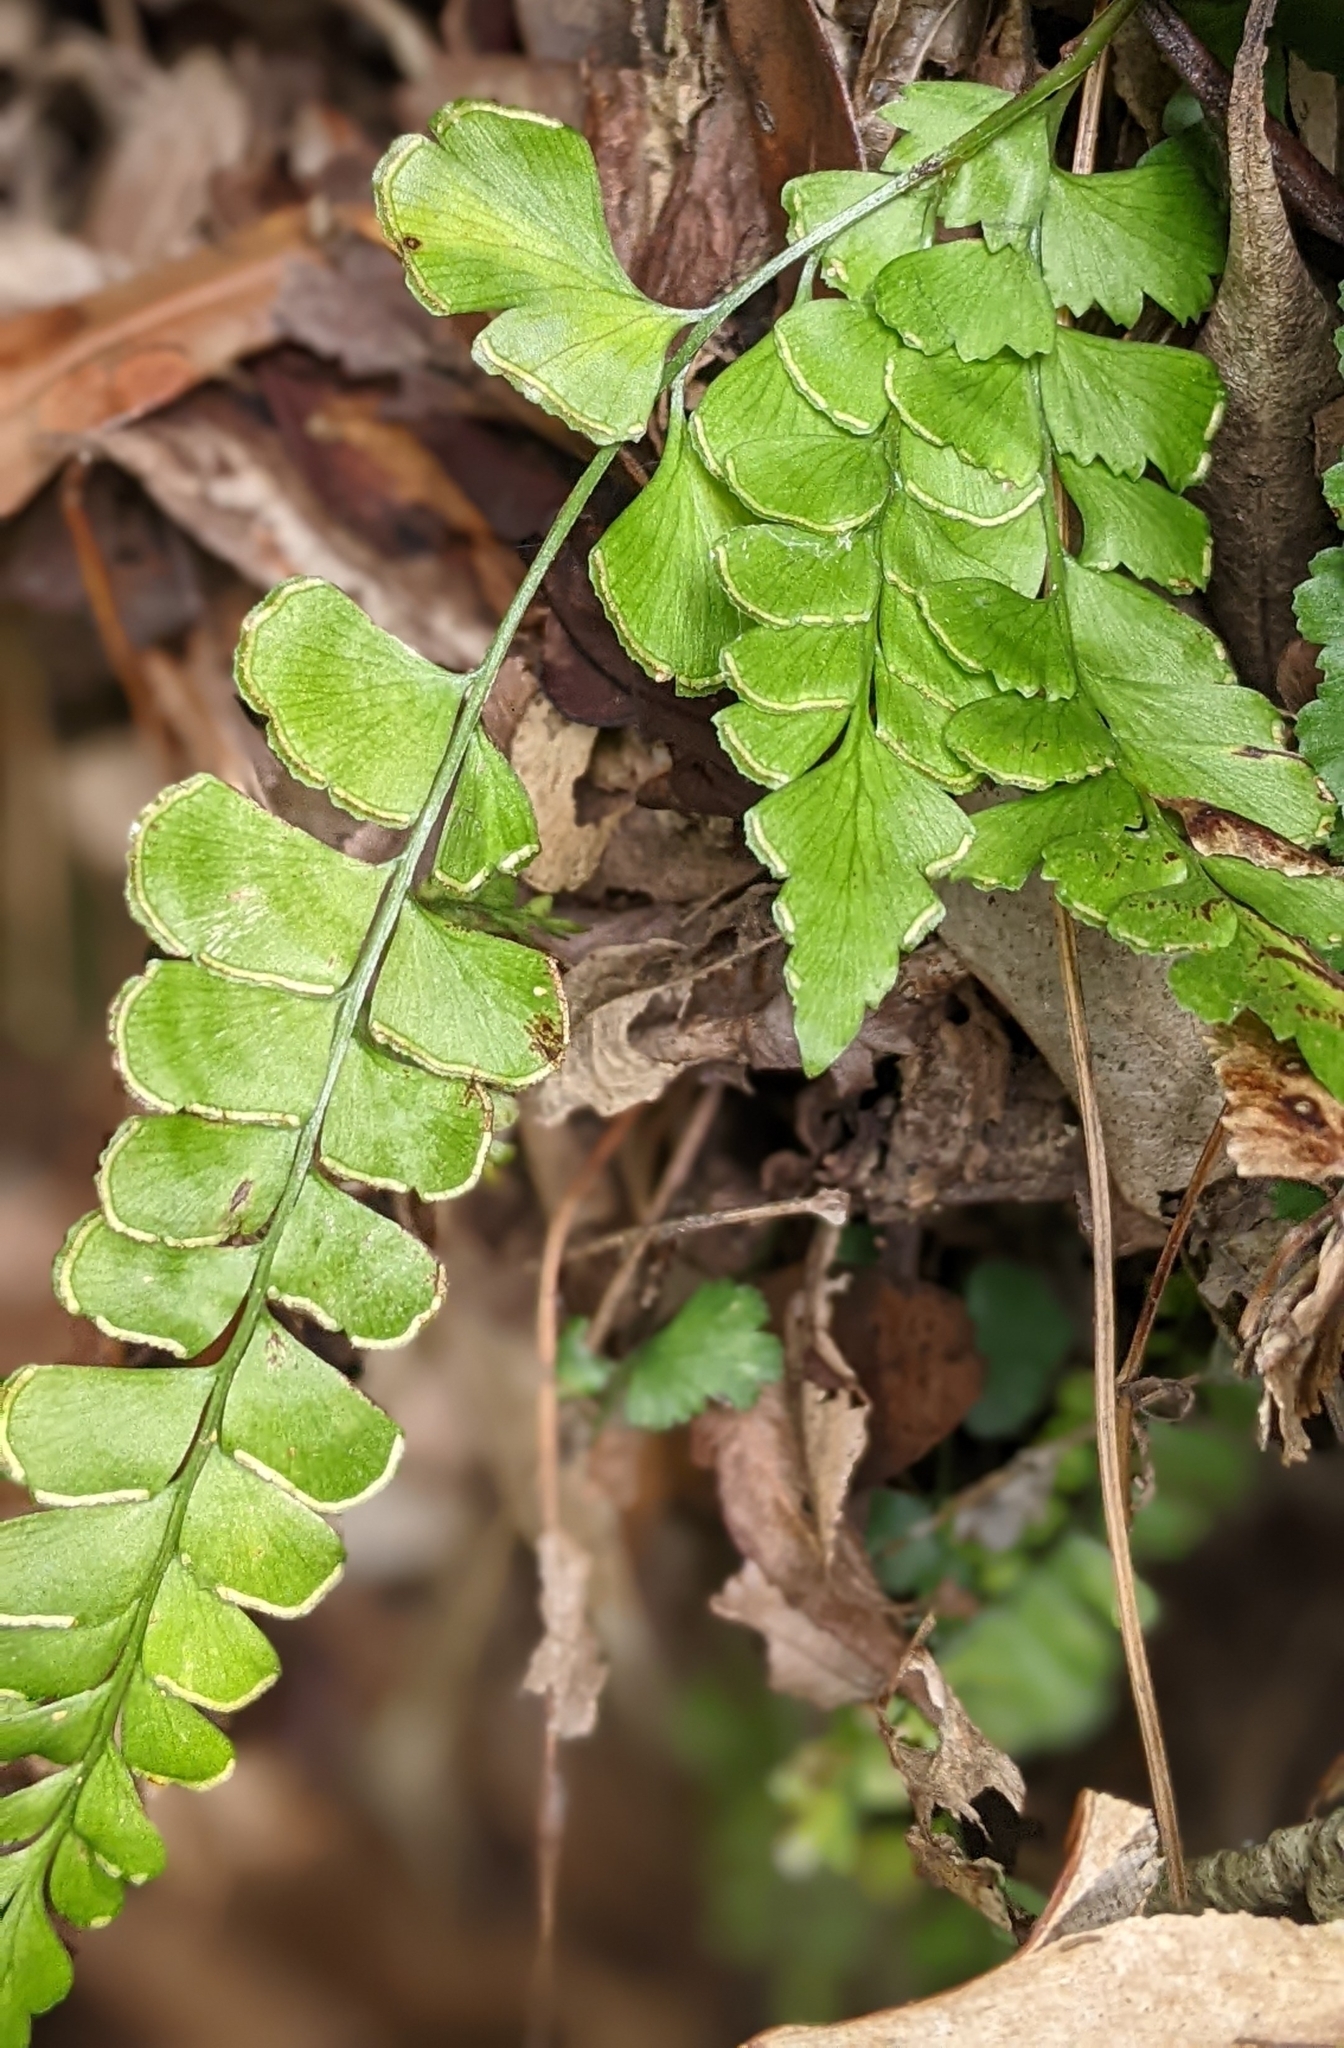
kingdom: Plantae
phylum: Tracheophyta
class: Polypodiopsida
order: Polypodiales
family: Lindsaeaceae
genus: Lindsaea
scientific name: Lindsaea bonii
